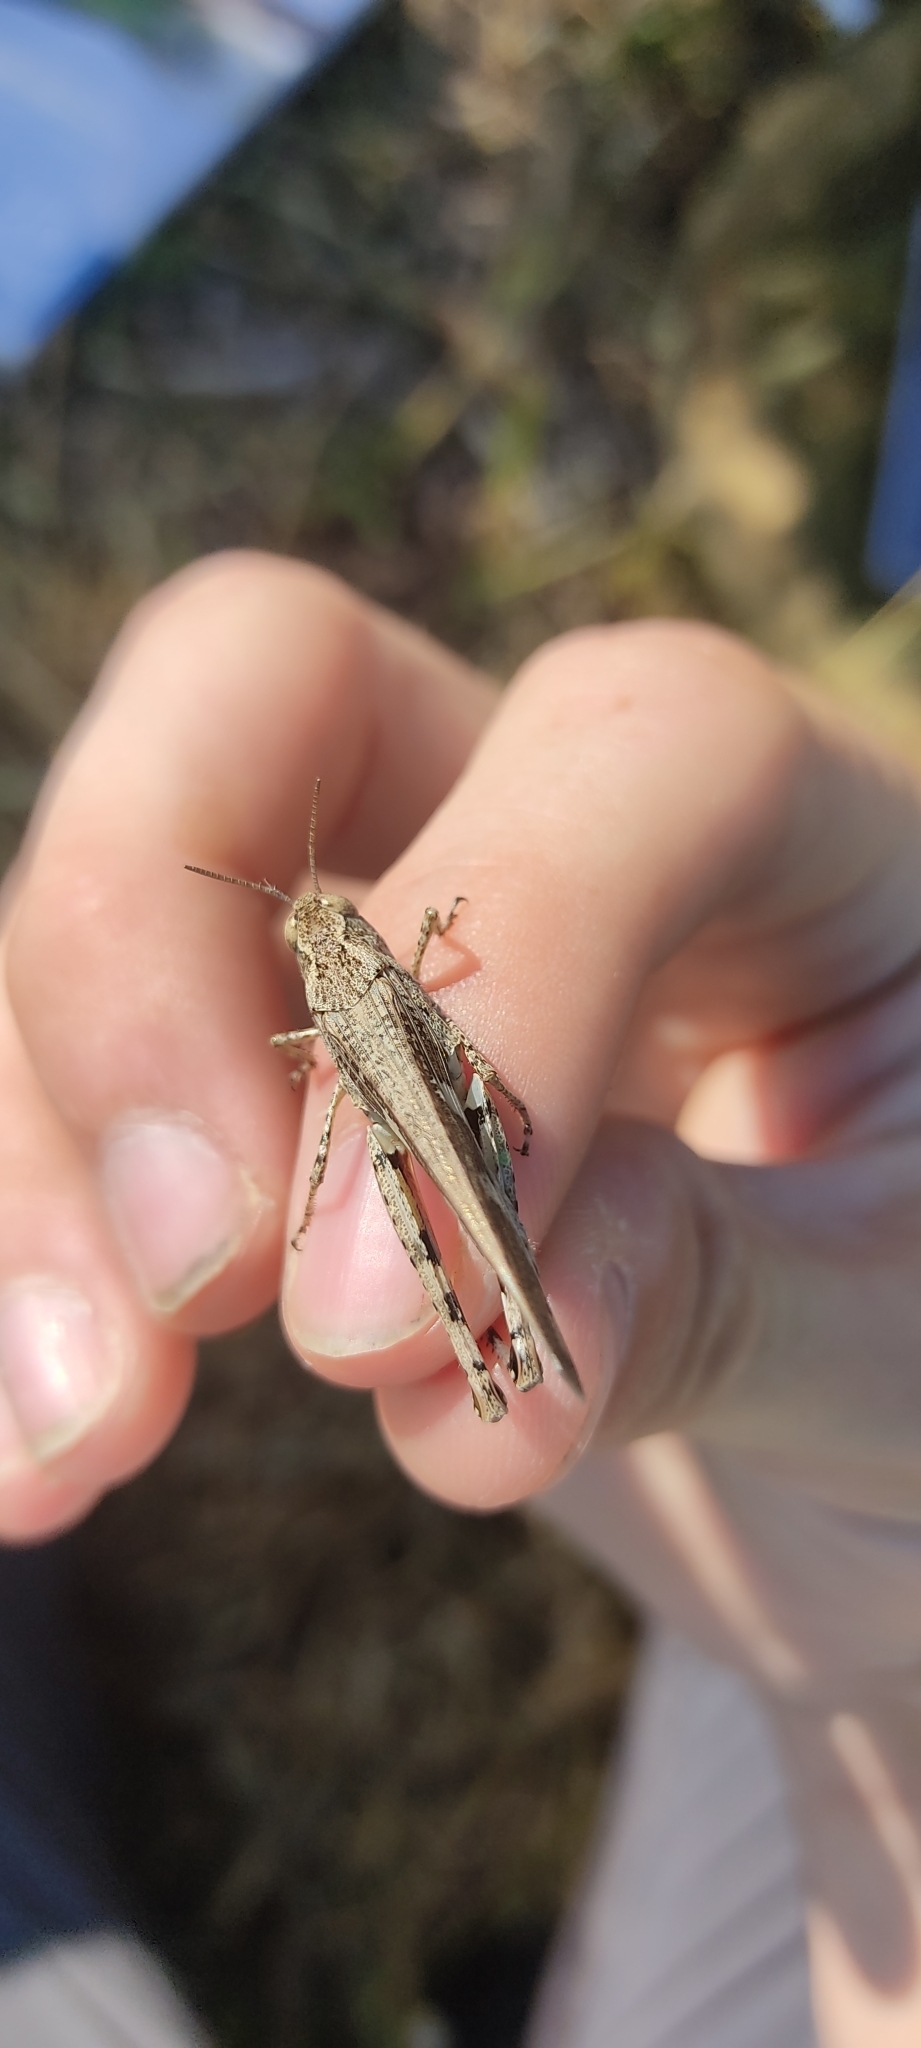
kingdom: Animalia
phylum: Arthropoda
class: Insecta
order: Orthoptera
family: Acrididae
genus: Aiolopus
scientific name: Aiolopus strepens
